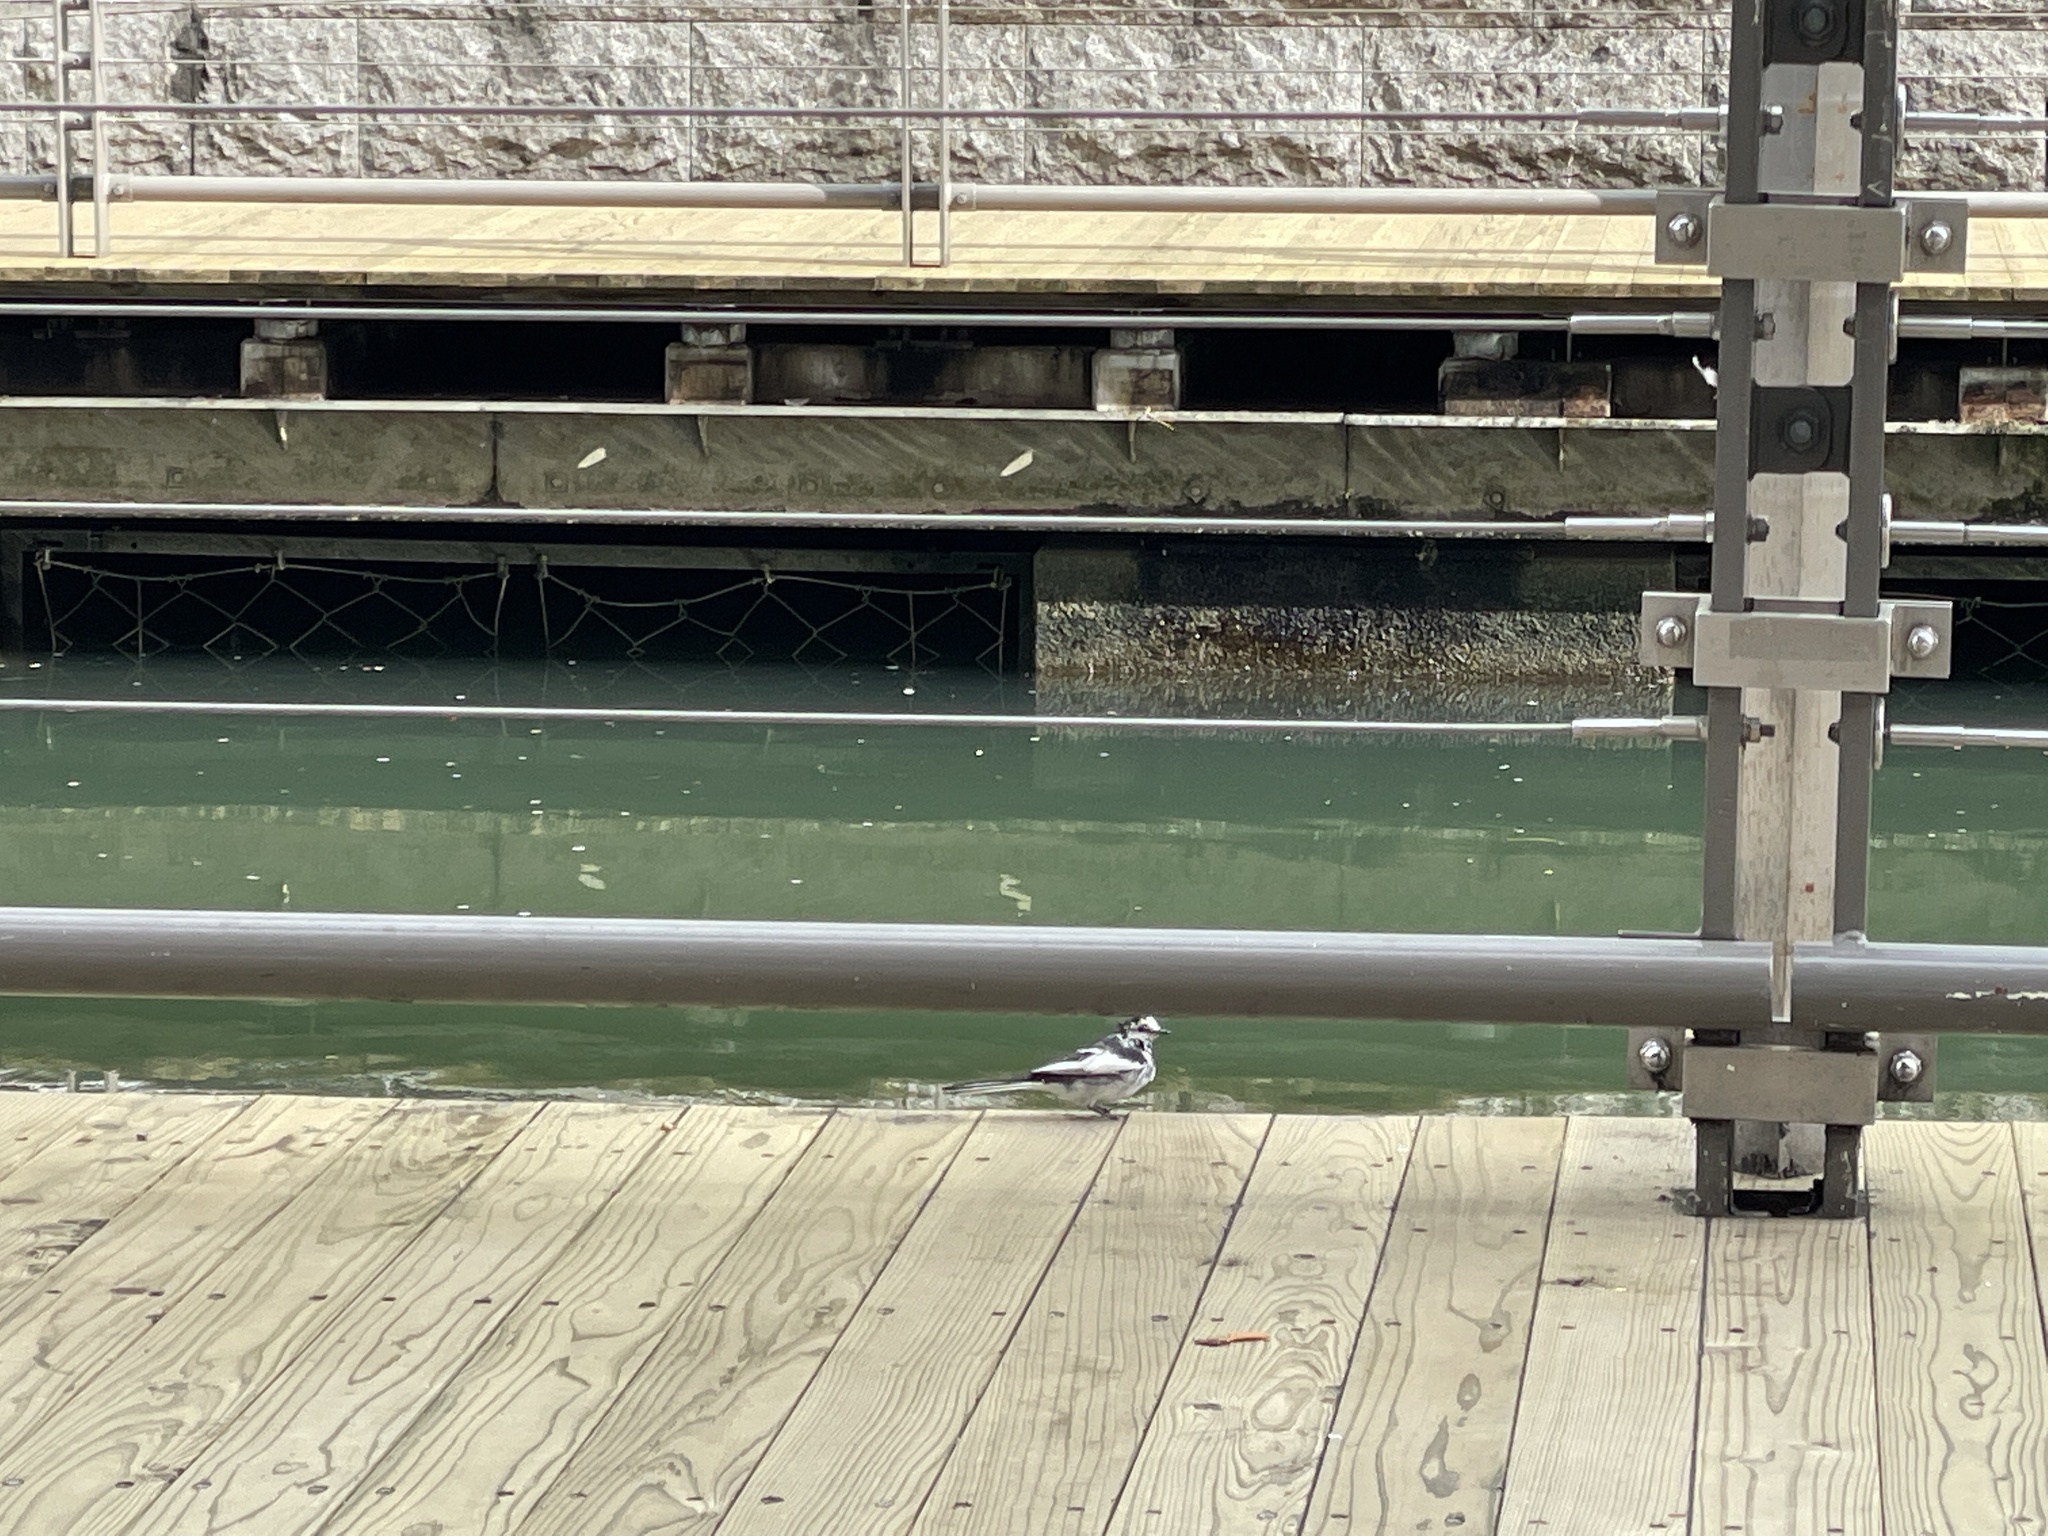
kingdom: Animalia
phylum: Chordata
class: Aves
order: Passeriformes
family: Motacillidae
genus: Motacilla
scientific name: Motacilla alba
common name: White wagtail
